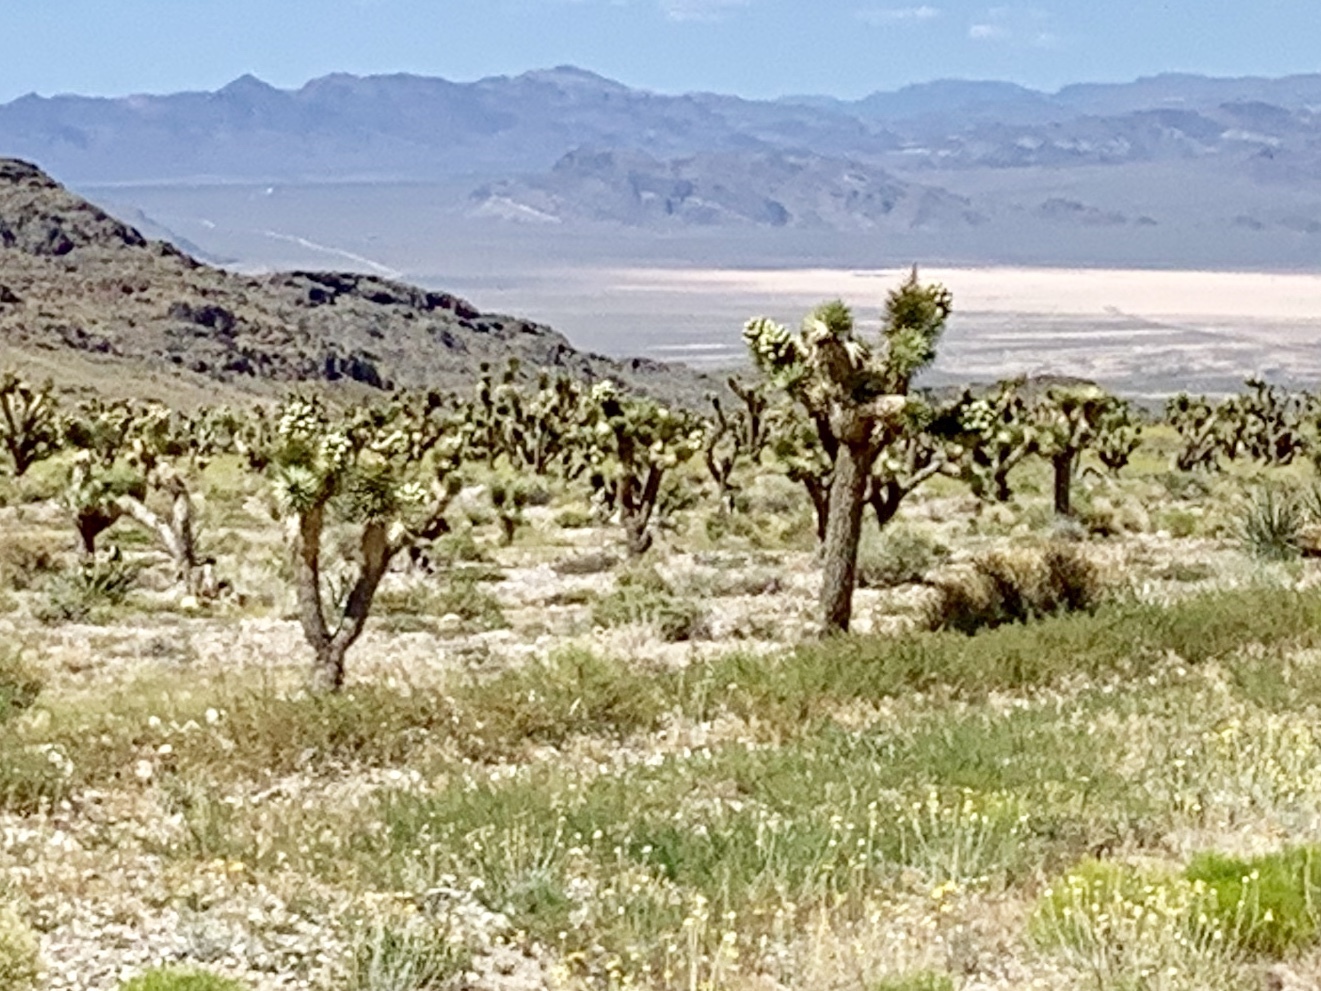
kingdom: Plantae
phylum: Tracheophyta
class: Liliopsida
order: Asparagales
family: Asparagaceae
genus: Yucca
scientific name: Yucca brevifolia
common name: Joshua tree
